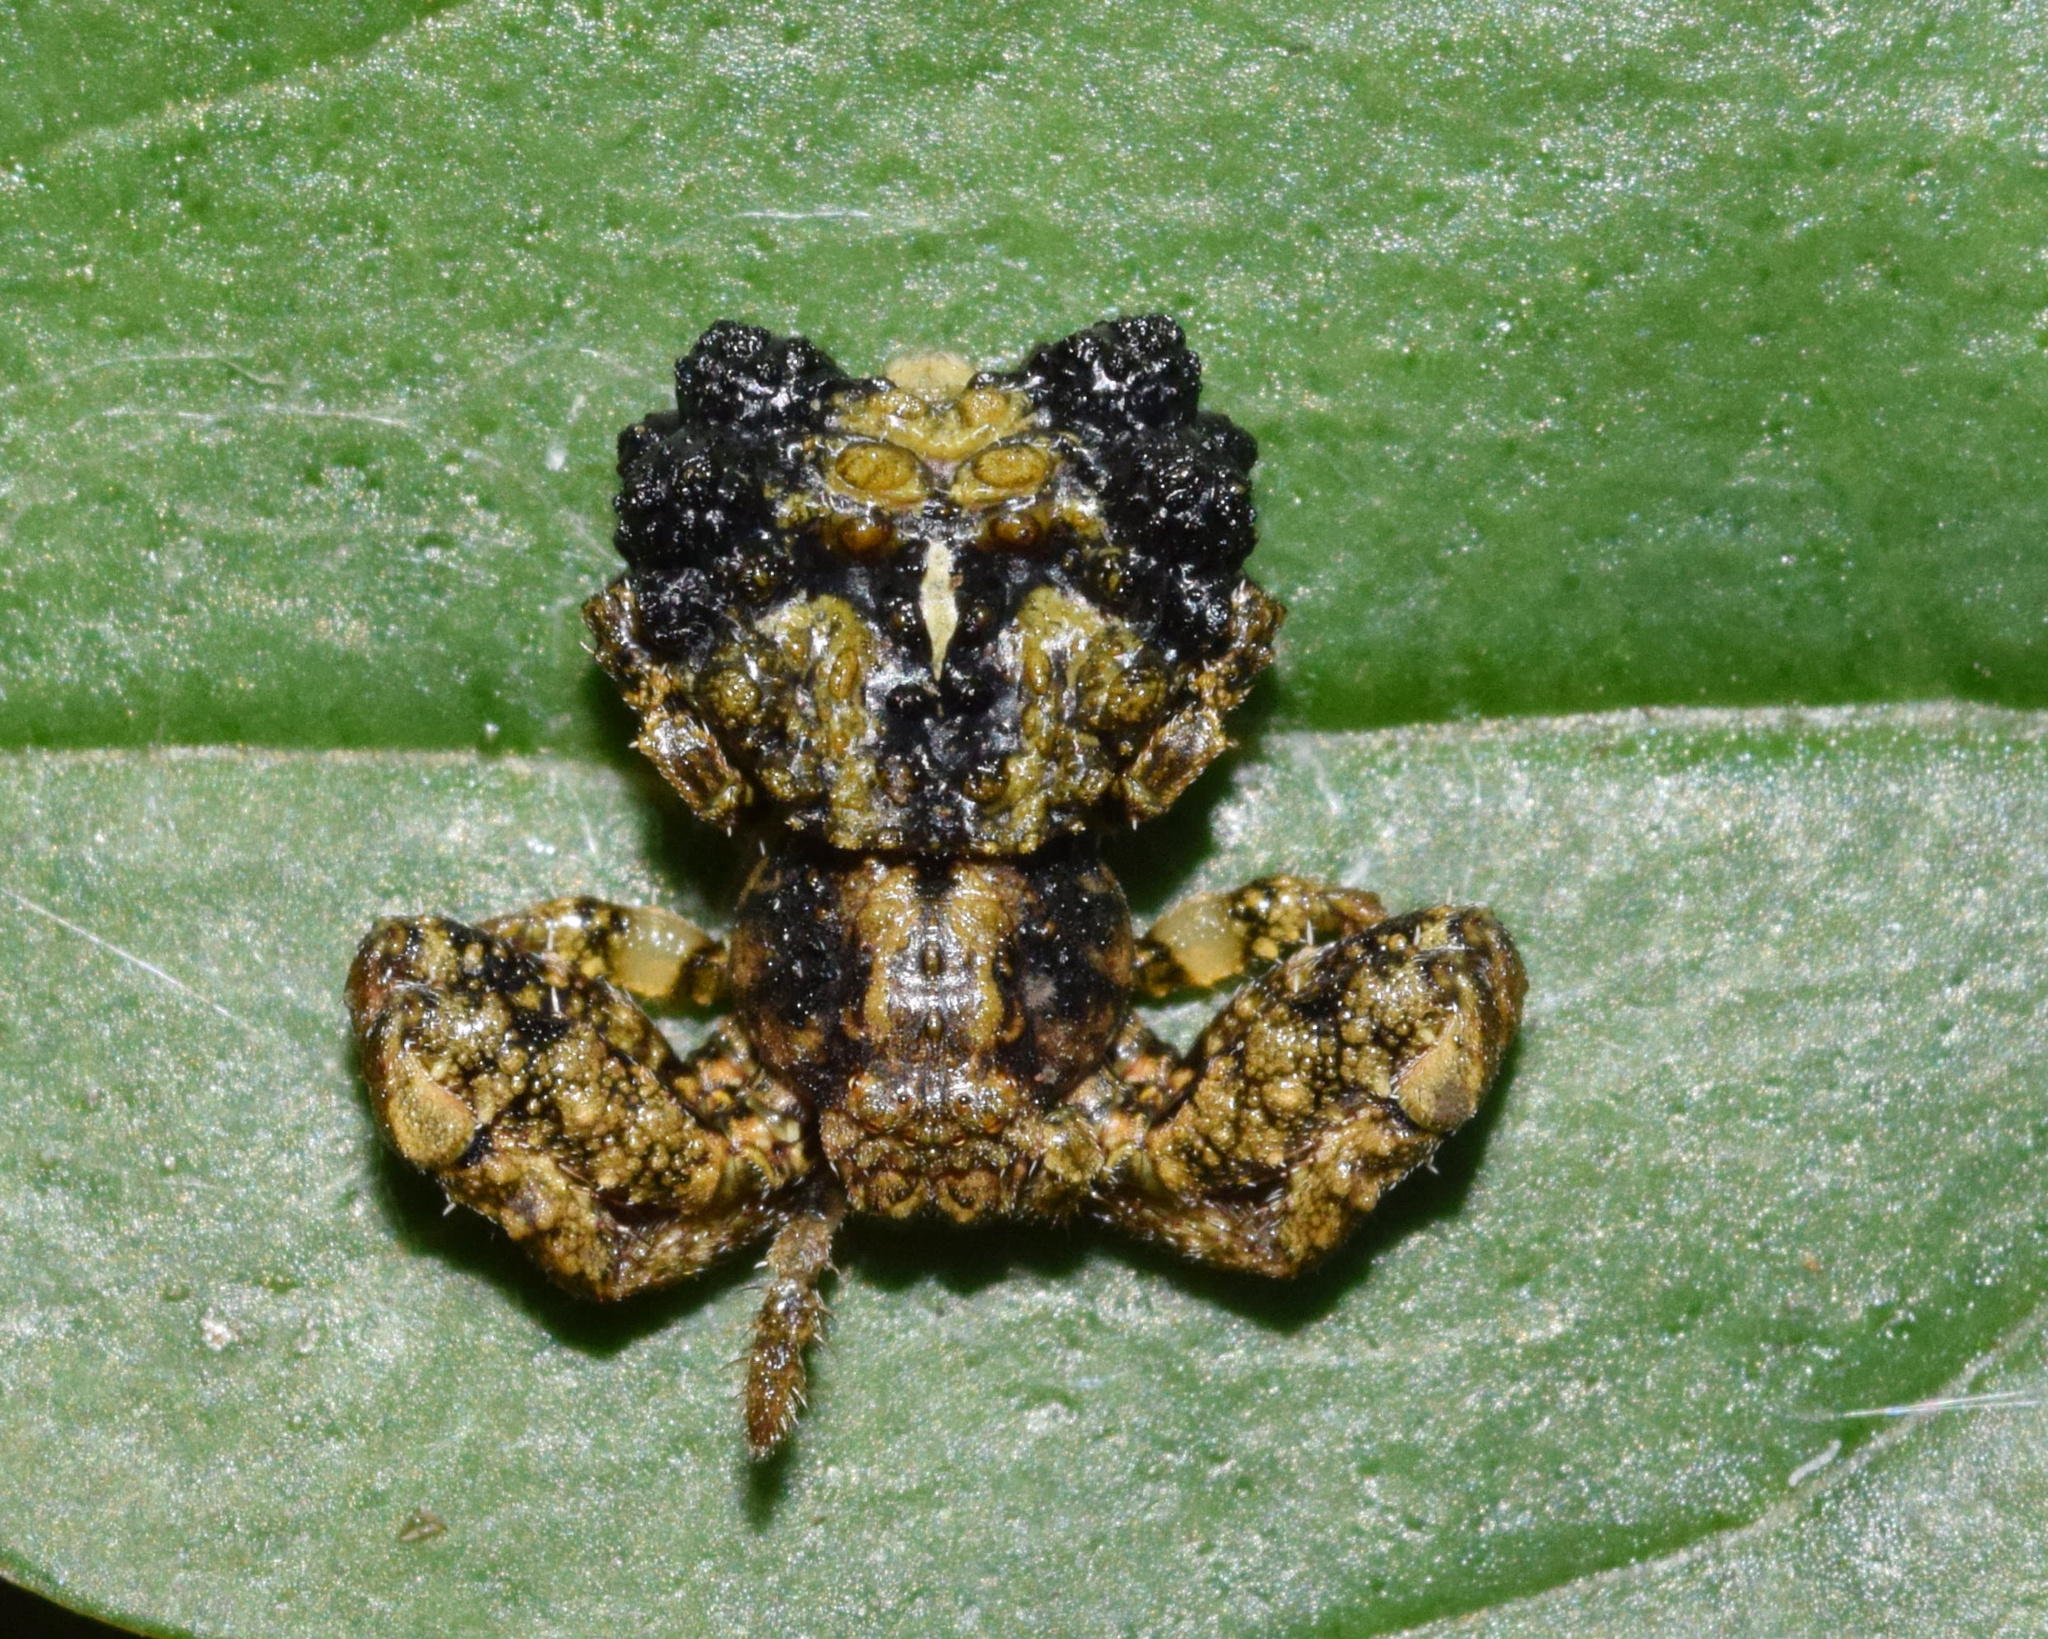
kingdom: Animalia
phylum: Arthropoda
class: Arachnida
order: Araneae
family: Thomisidae
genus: Phrynarachne
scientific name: Phrynarachne rugosa
